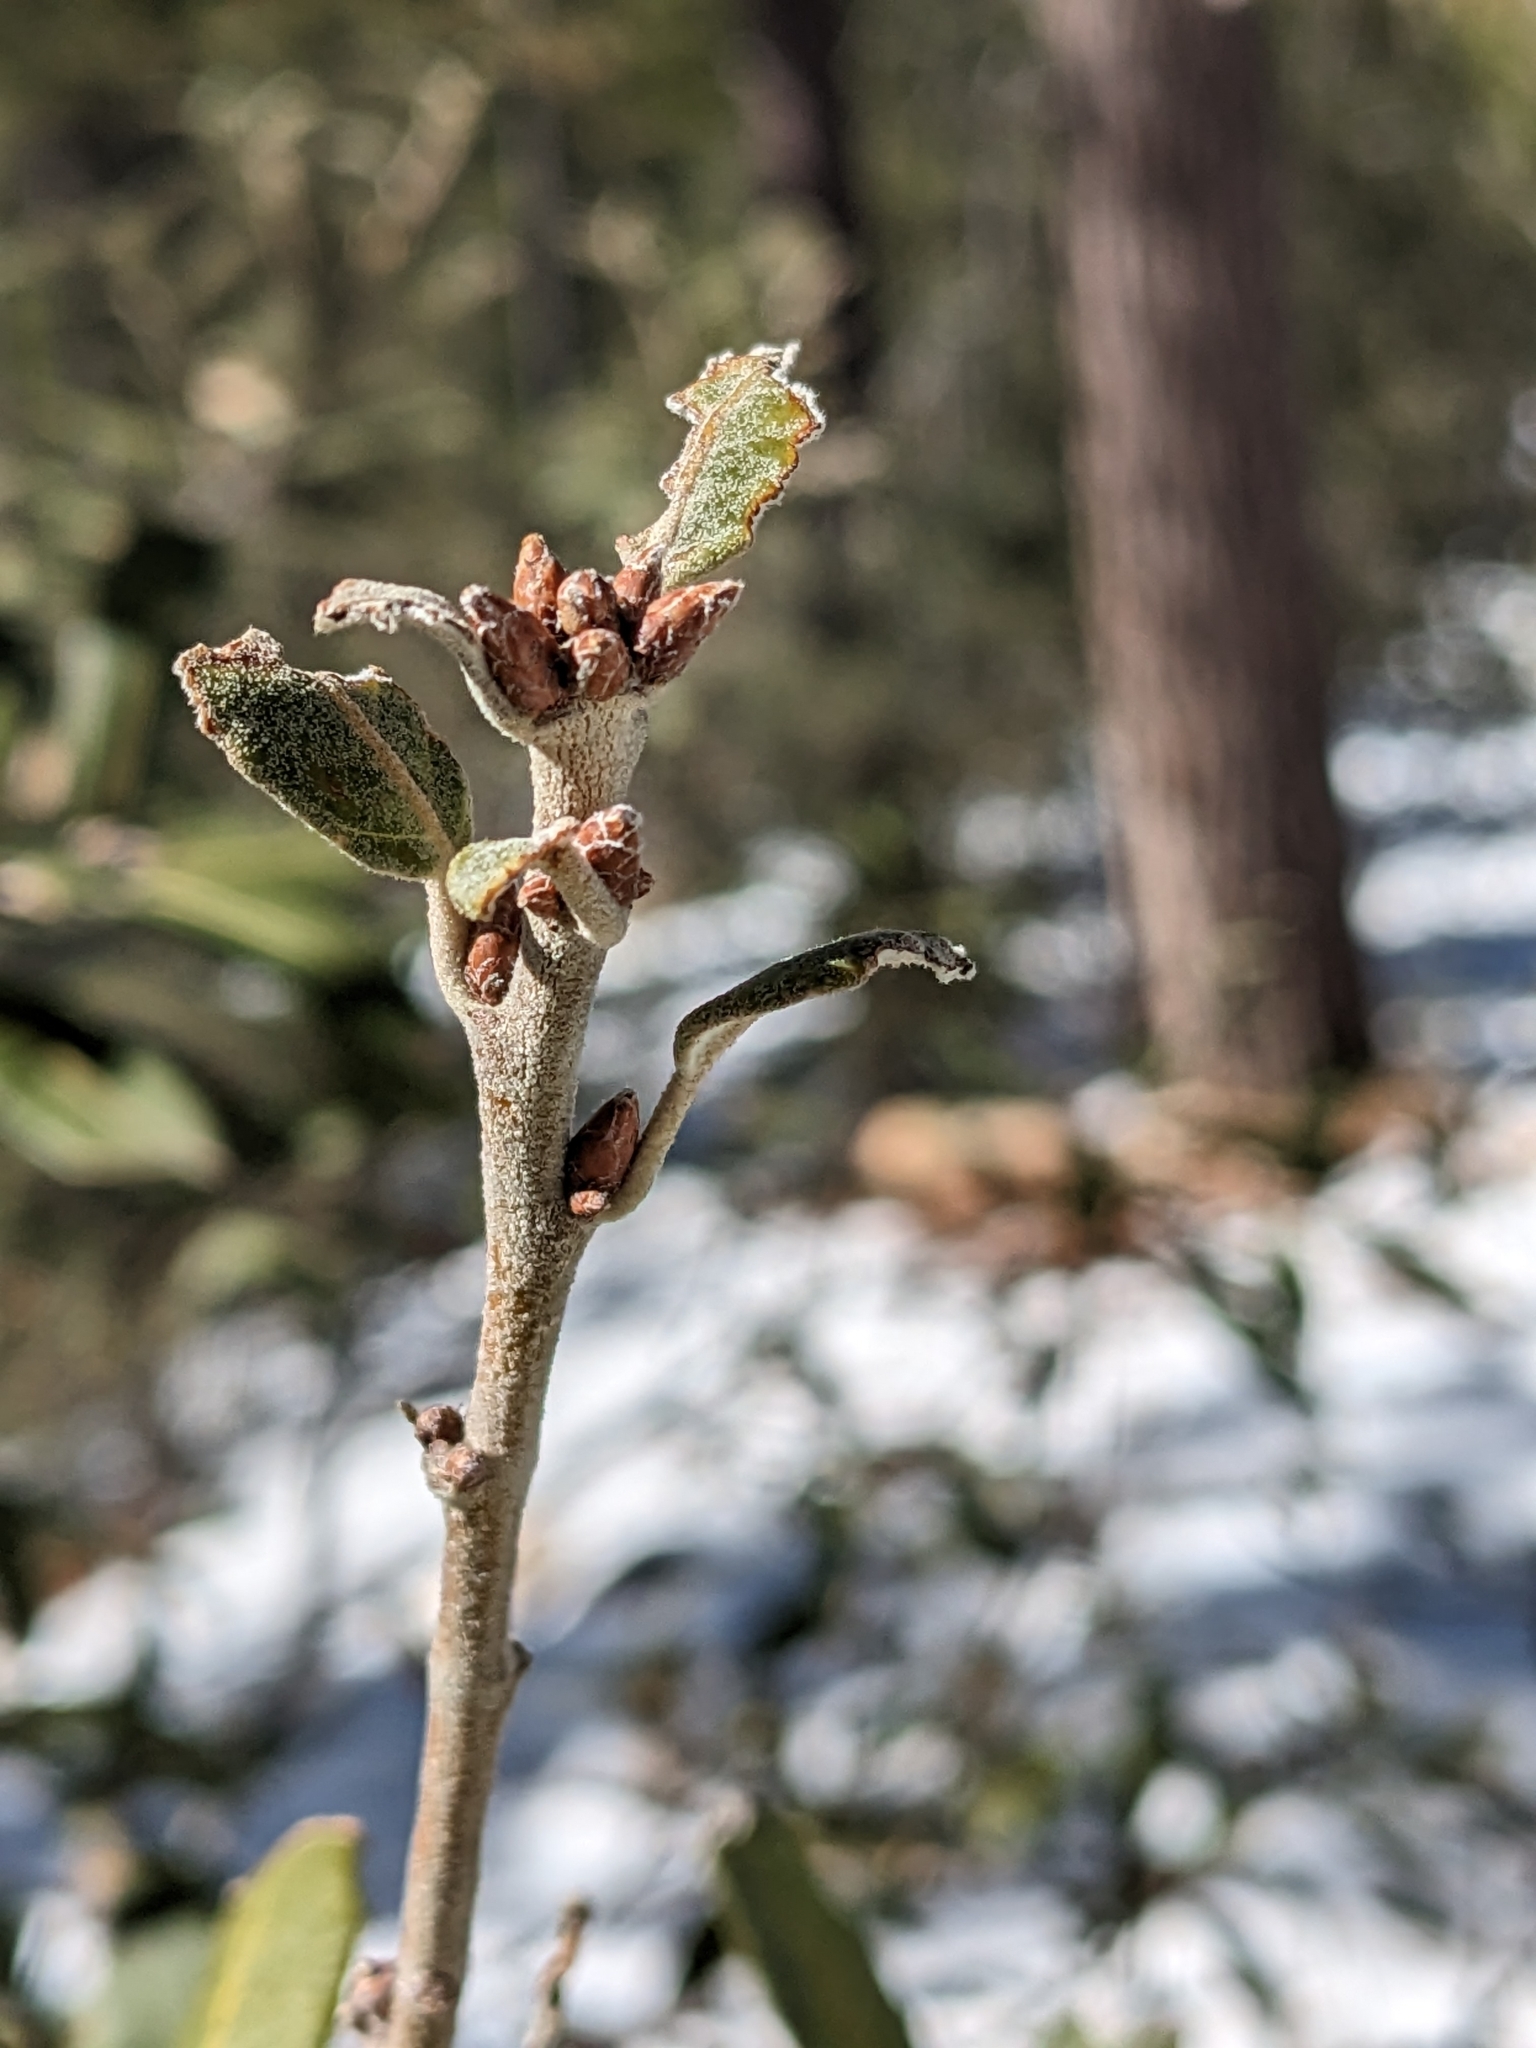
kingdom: Plantae
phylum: Tracheophyta
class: Magnoliopsida
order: Fagales
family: Fagaceae
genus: Quercus
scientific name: Quercus hypoleucoides
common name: Silverleaf oak
